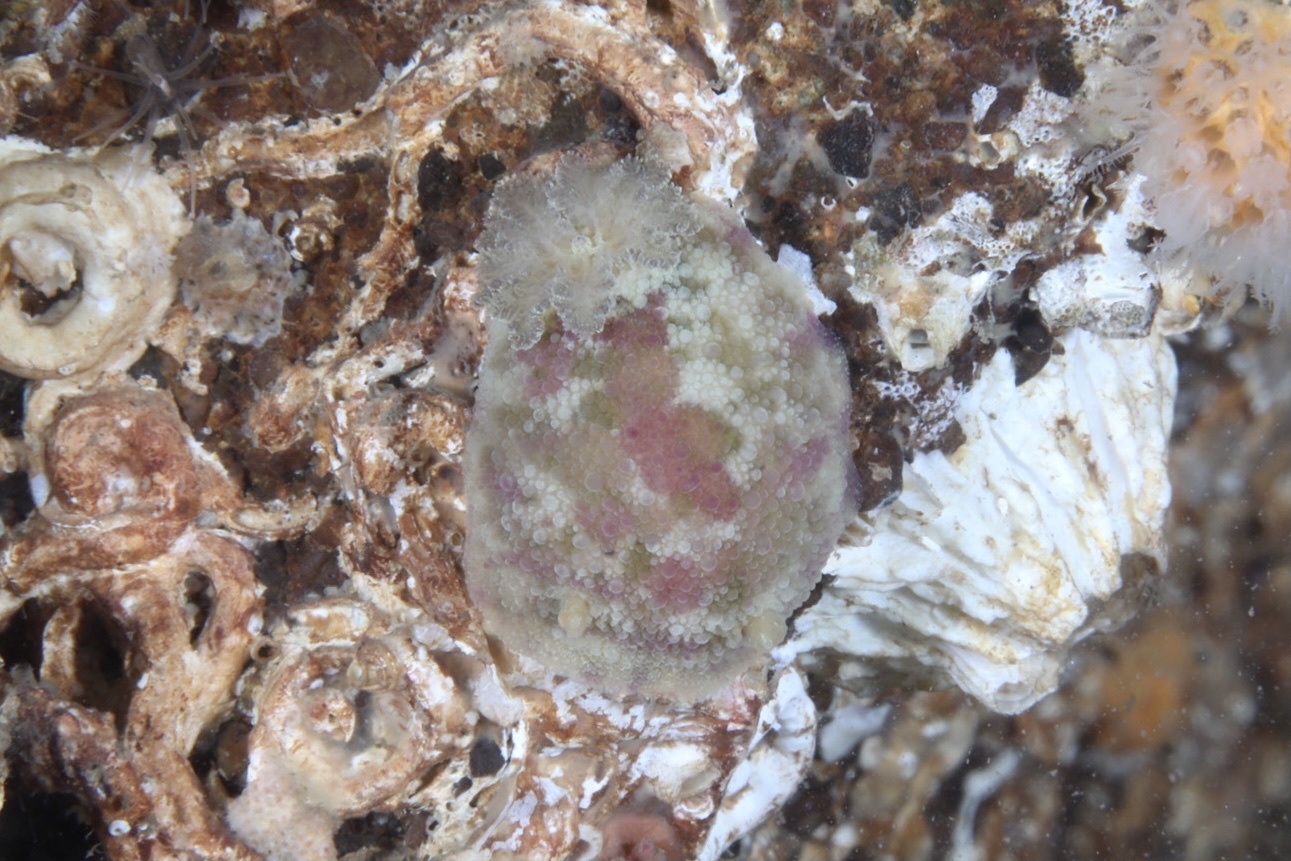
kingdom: Animalia
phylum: Mollusca
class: Gastropoda
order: Nudibranchia
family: Dorididae
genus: Doris
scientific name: Doris pseudoargus
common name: Sea lemon
